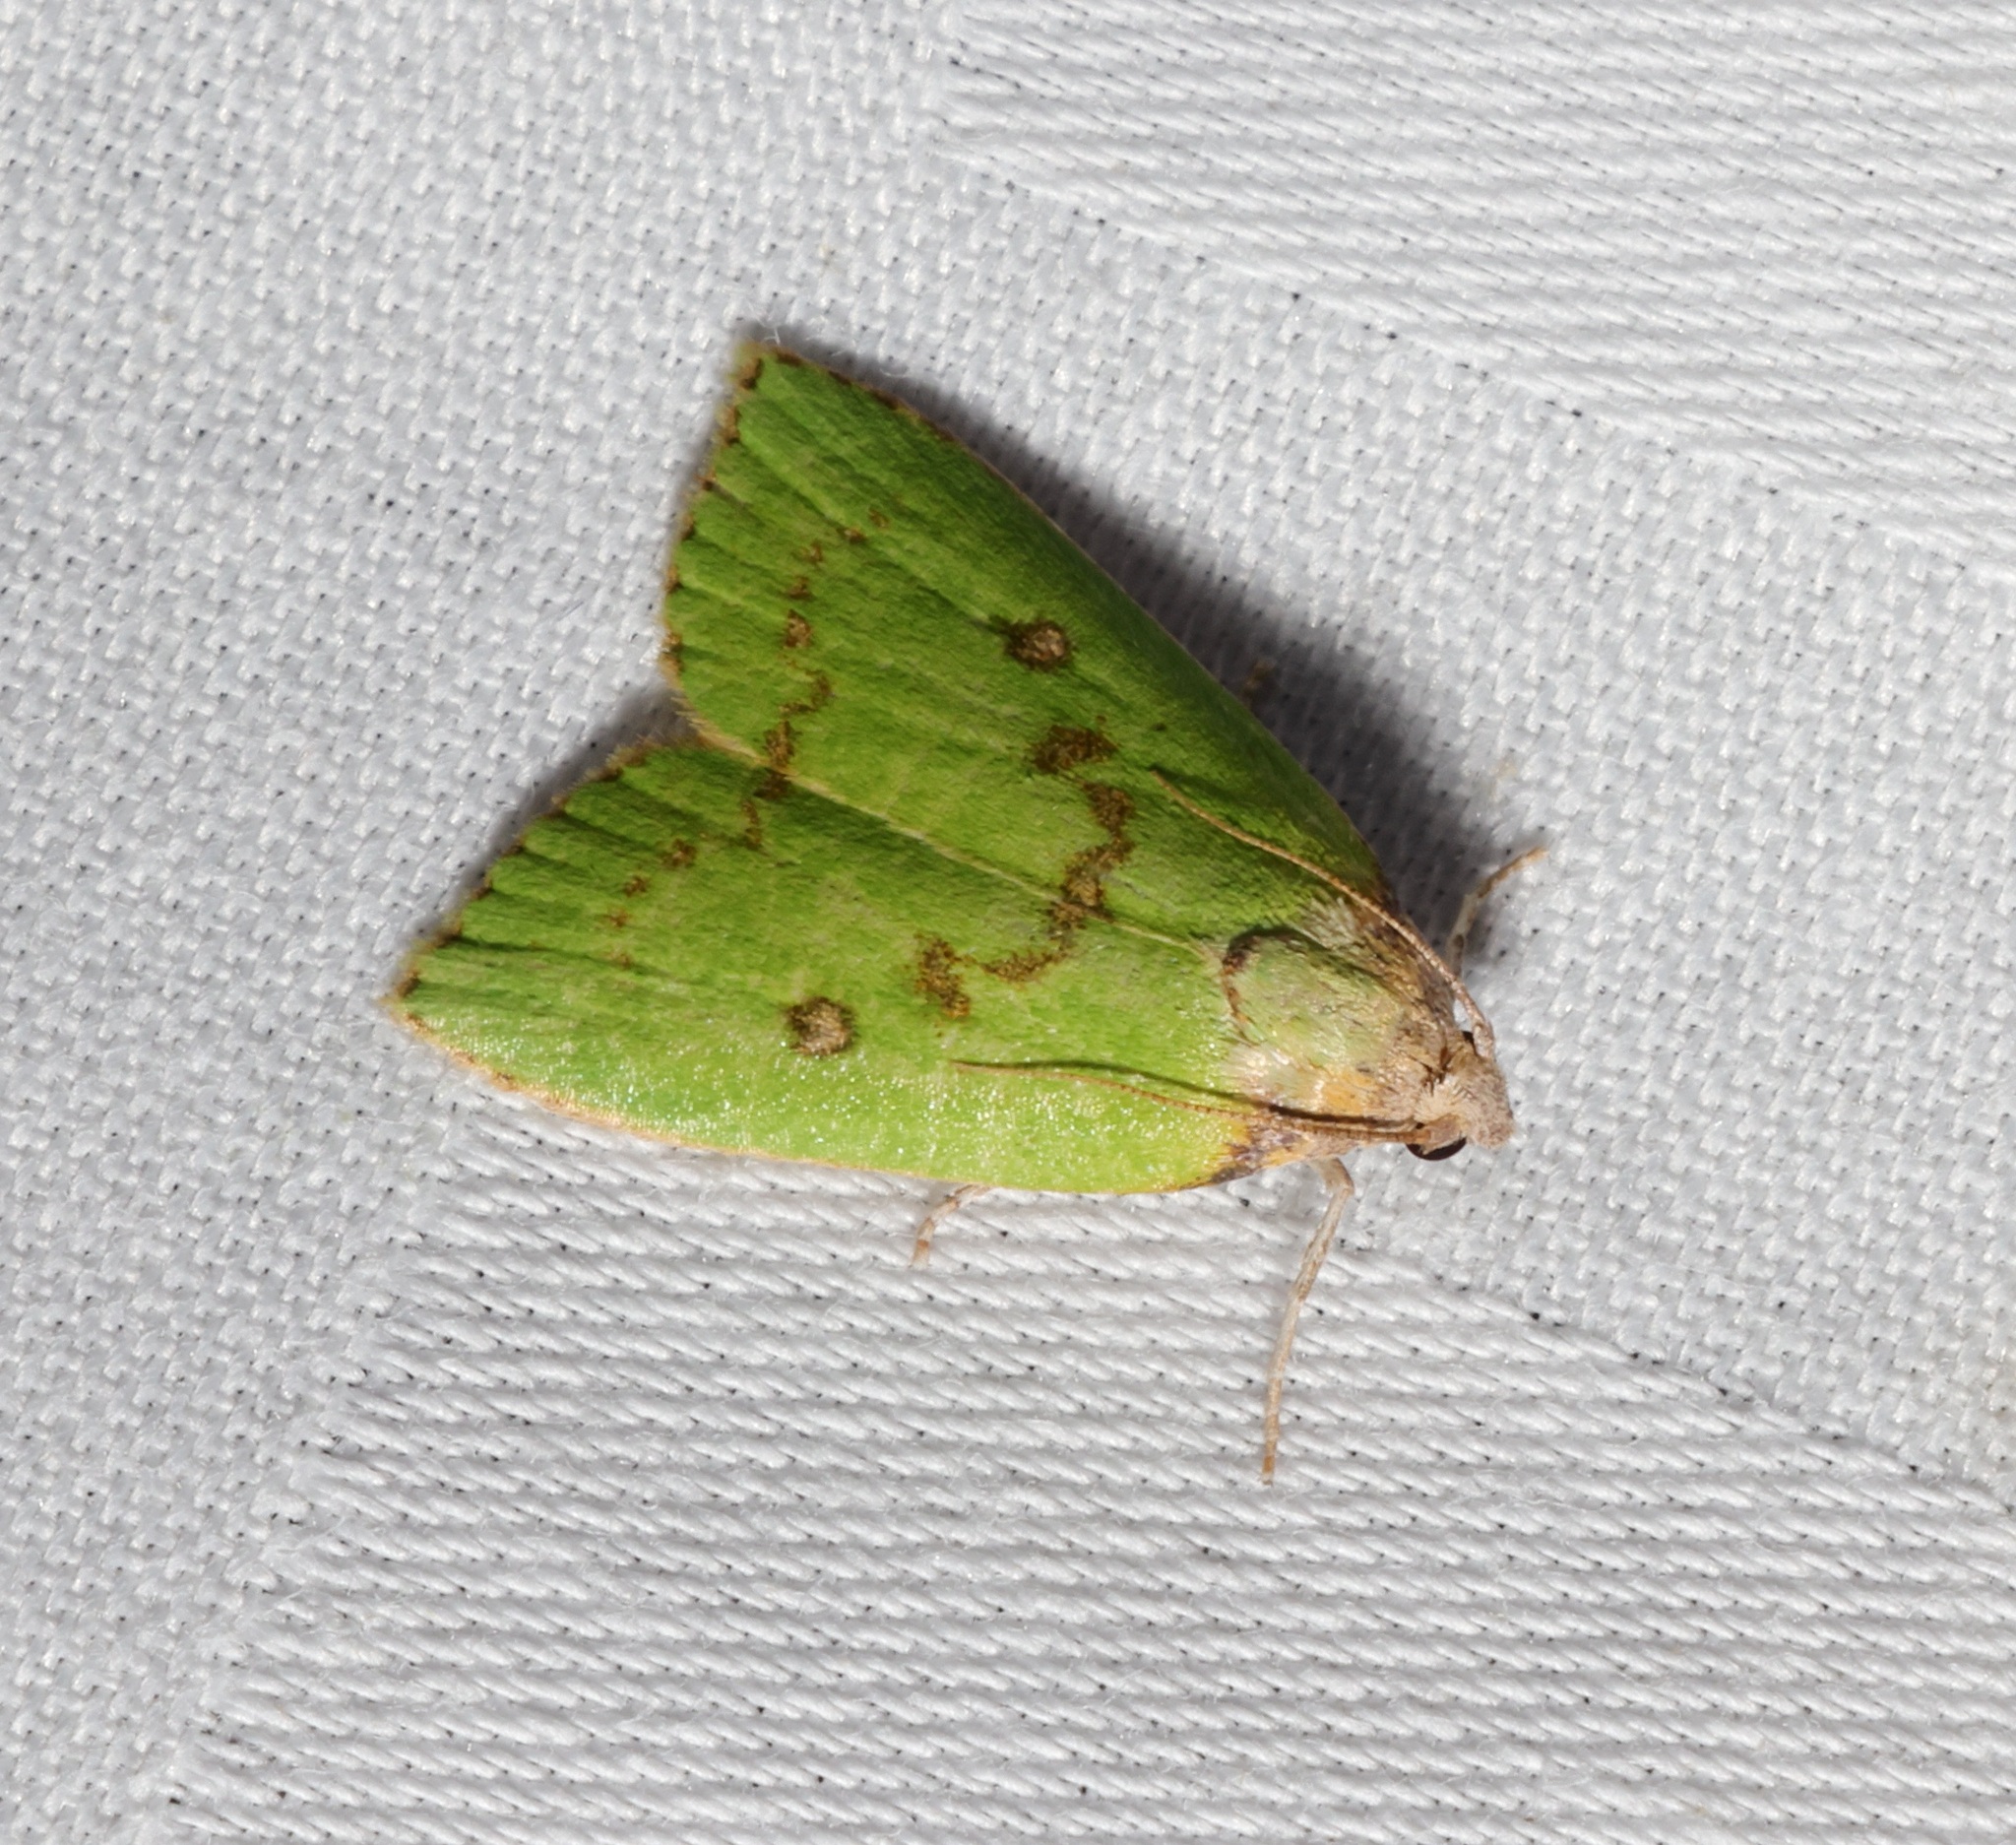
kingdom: Animalia
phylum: Arthropoda
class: Insecta
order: Lepidoptera
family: Pyralidae
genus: Doloessa
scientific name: Doloessa viridis
